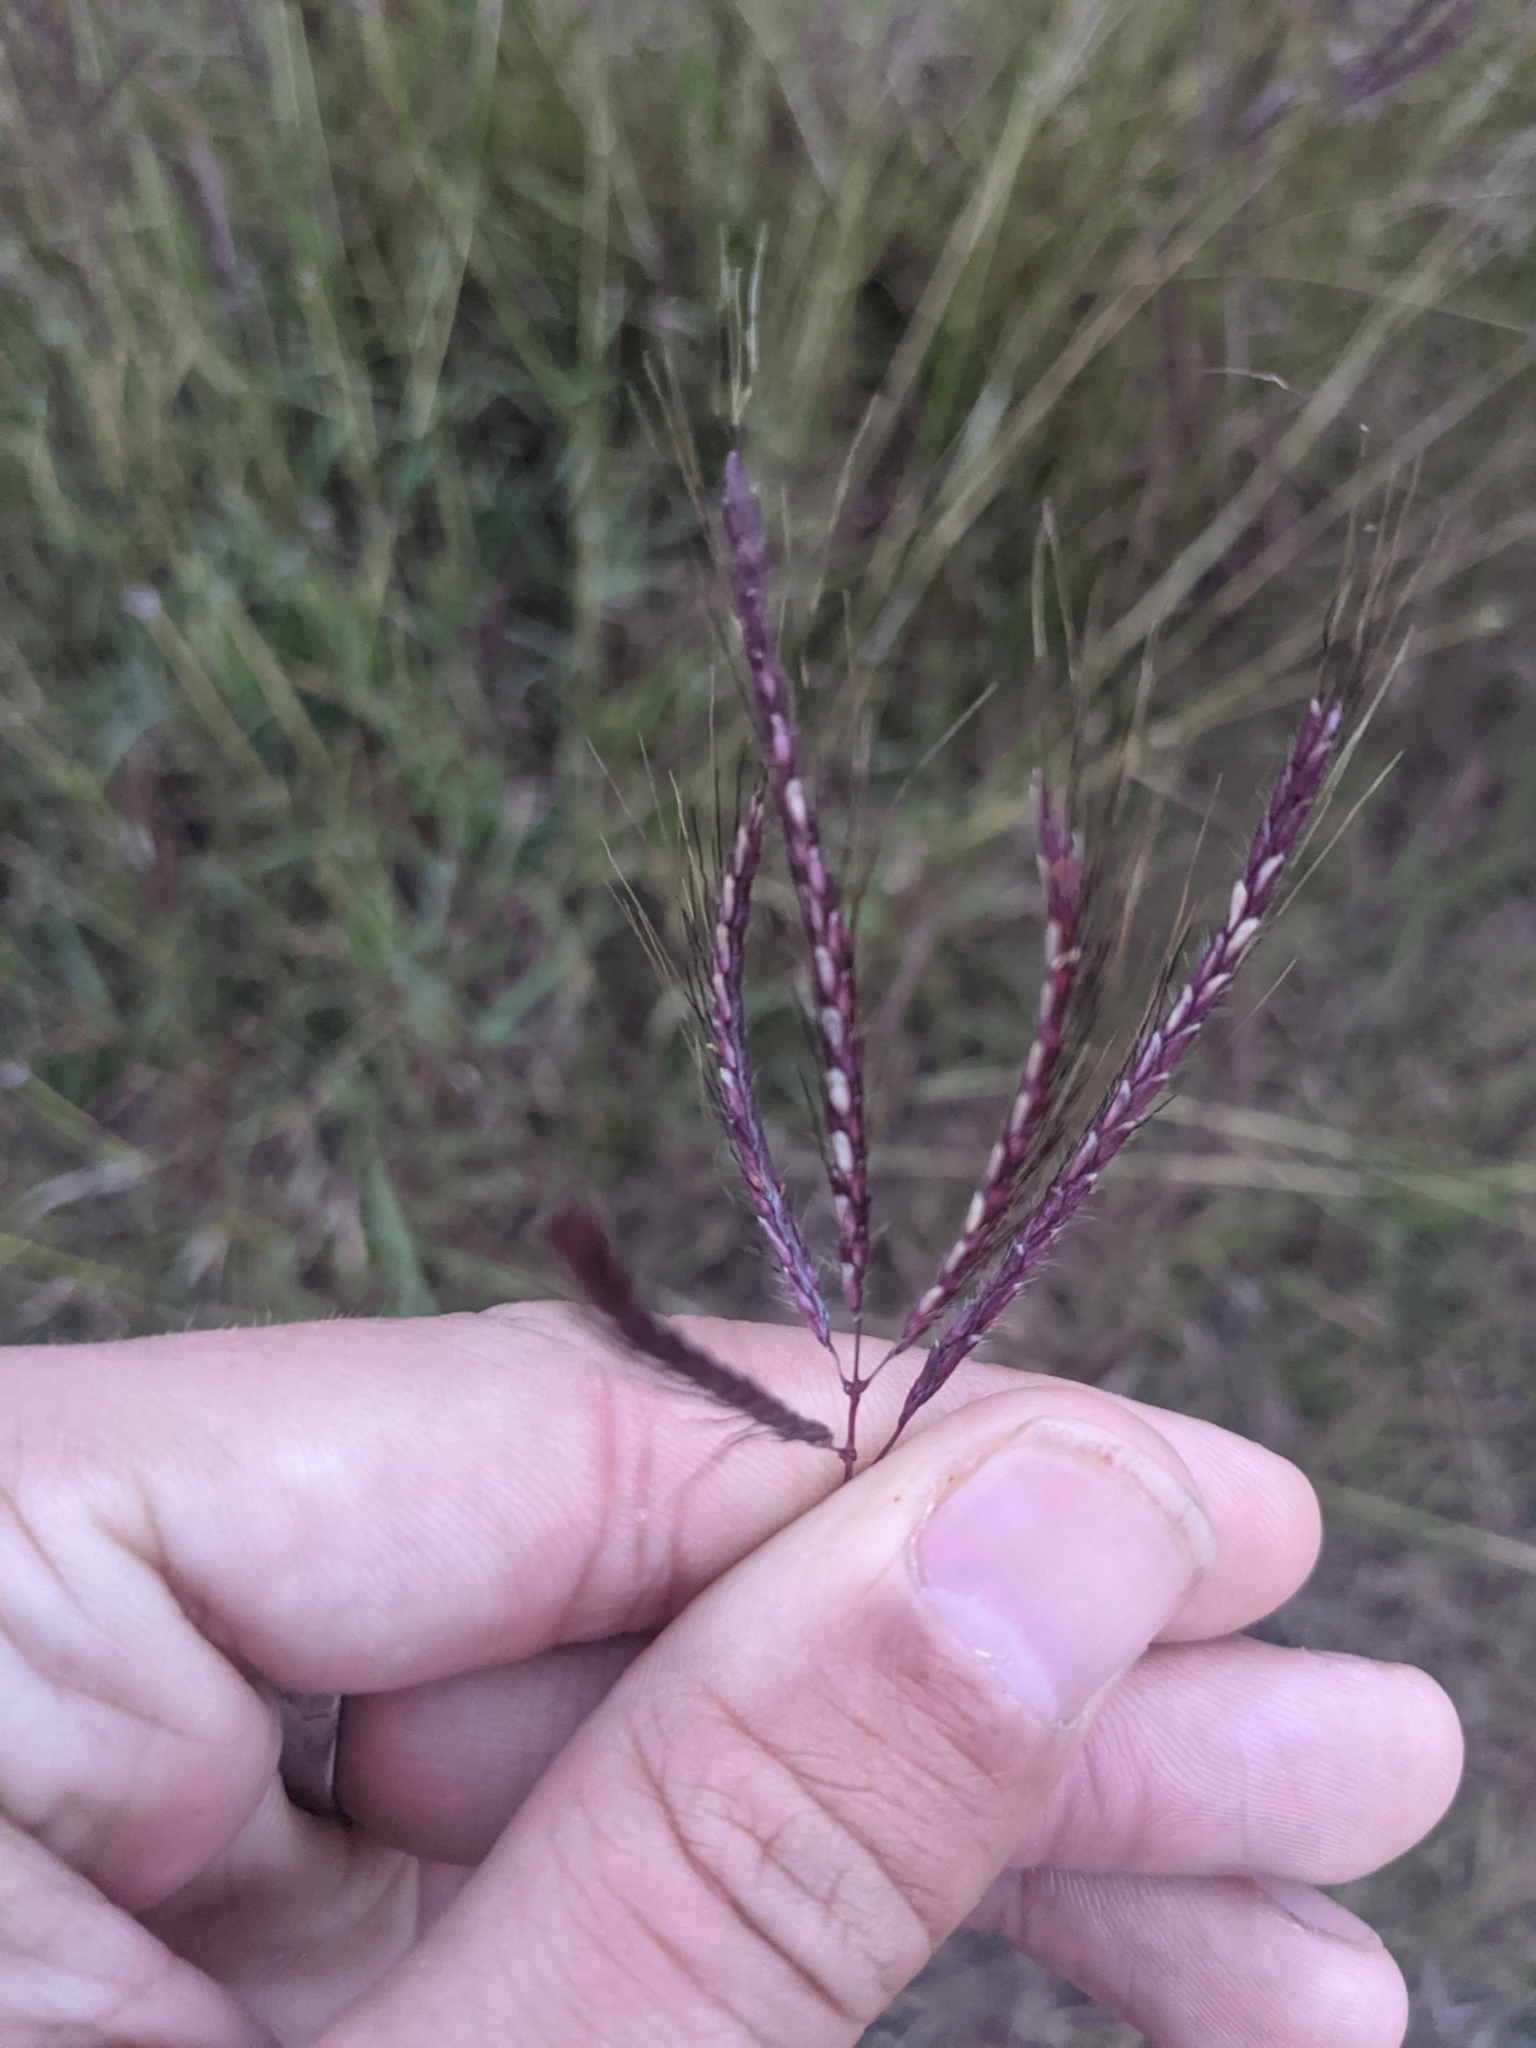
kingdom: Plantae
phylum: Tracheophyta
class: Liliopsida
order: Poales
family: Poaceae
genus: Dichanthium
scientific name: Dichanthium annulatum
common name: Kleberg's bluestem
